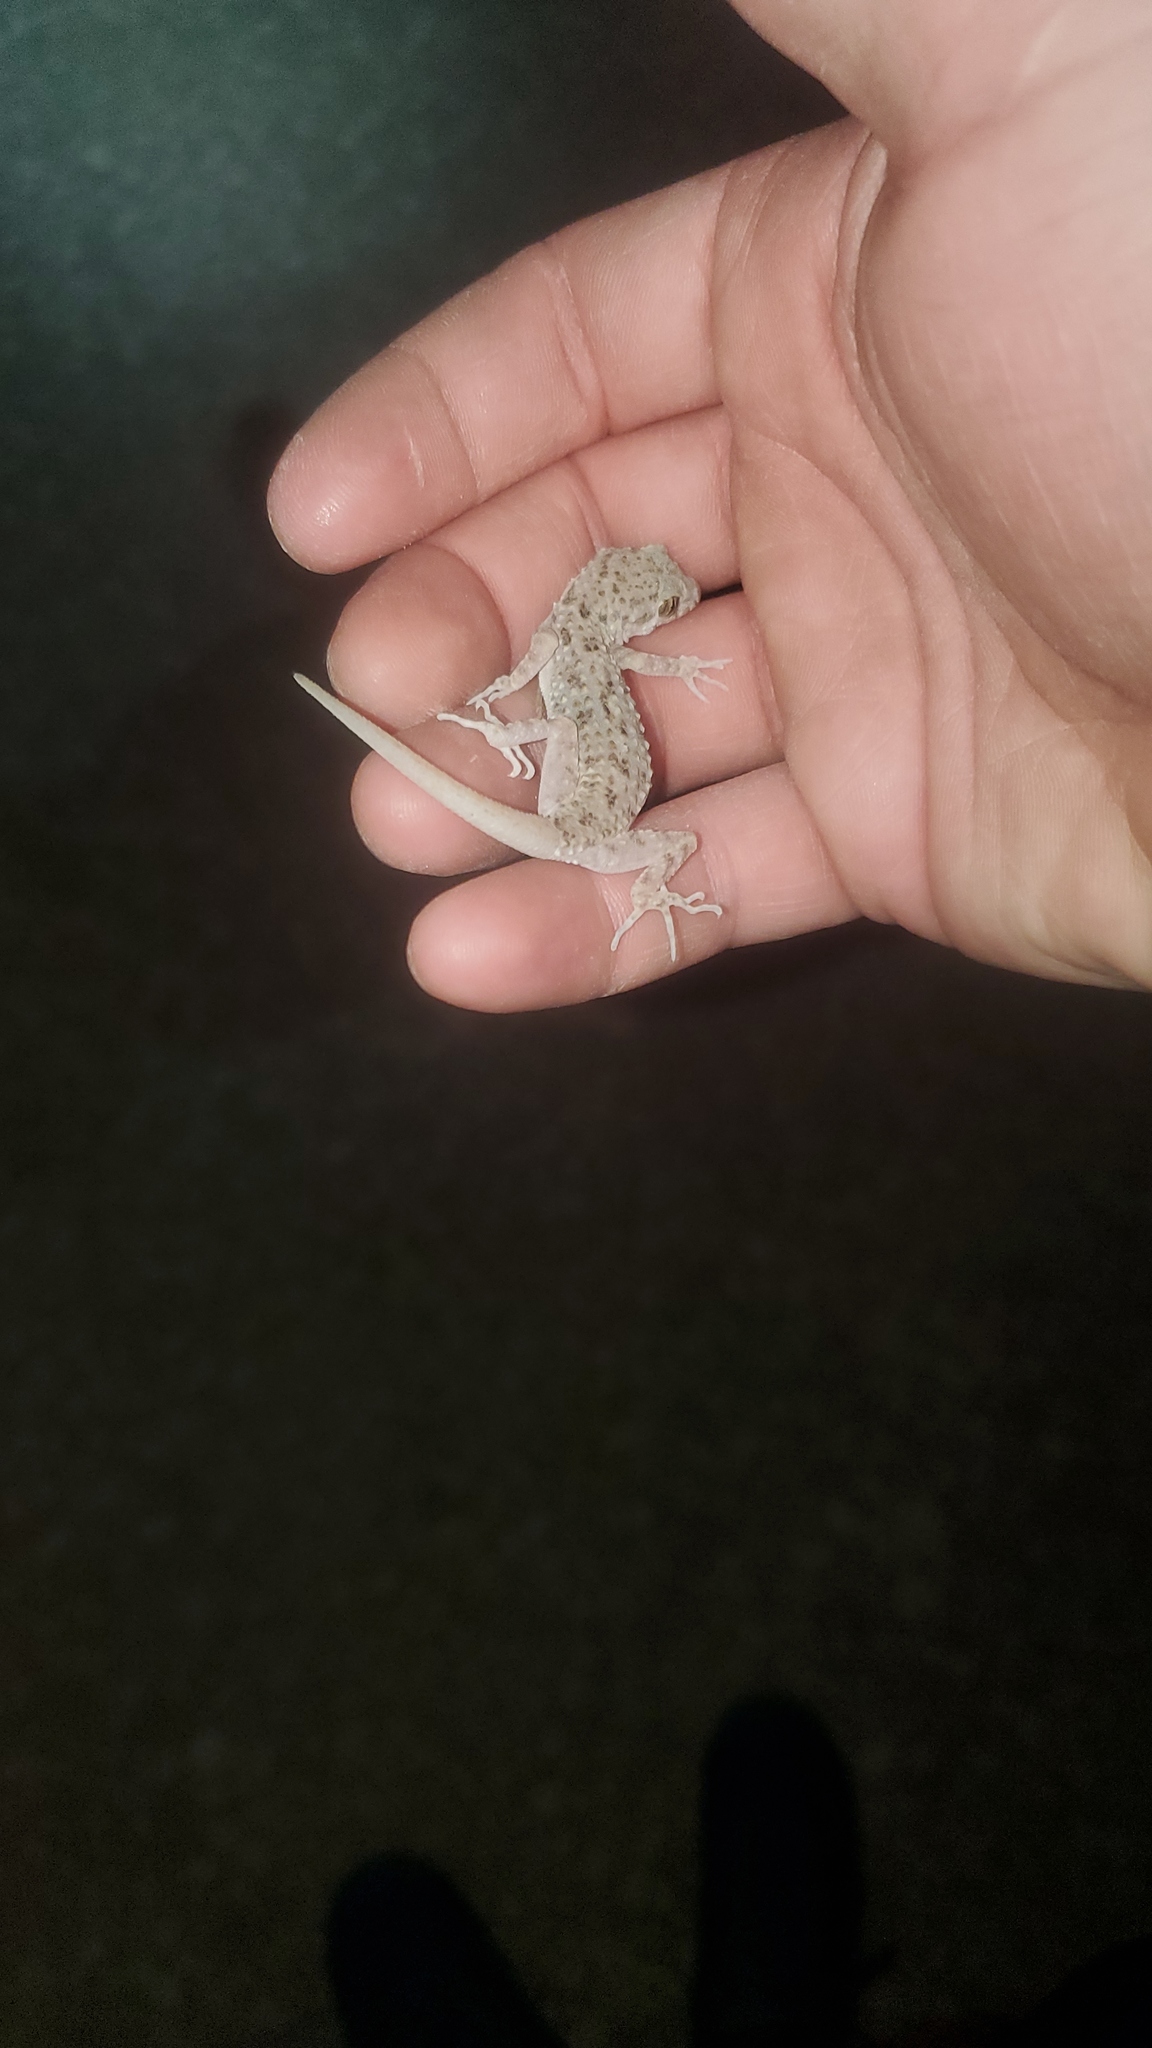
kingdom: Animalia
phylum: Chordata
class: Squamata
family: Gekkonidae
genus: Cyrtopodion
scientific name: Cyrtopodion scabrum
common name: Rough-tailed gecko
